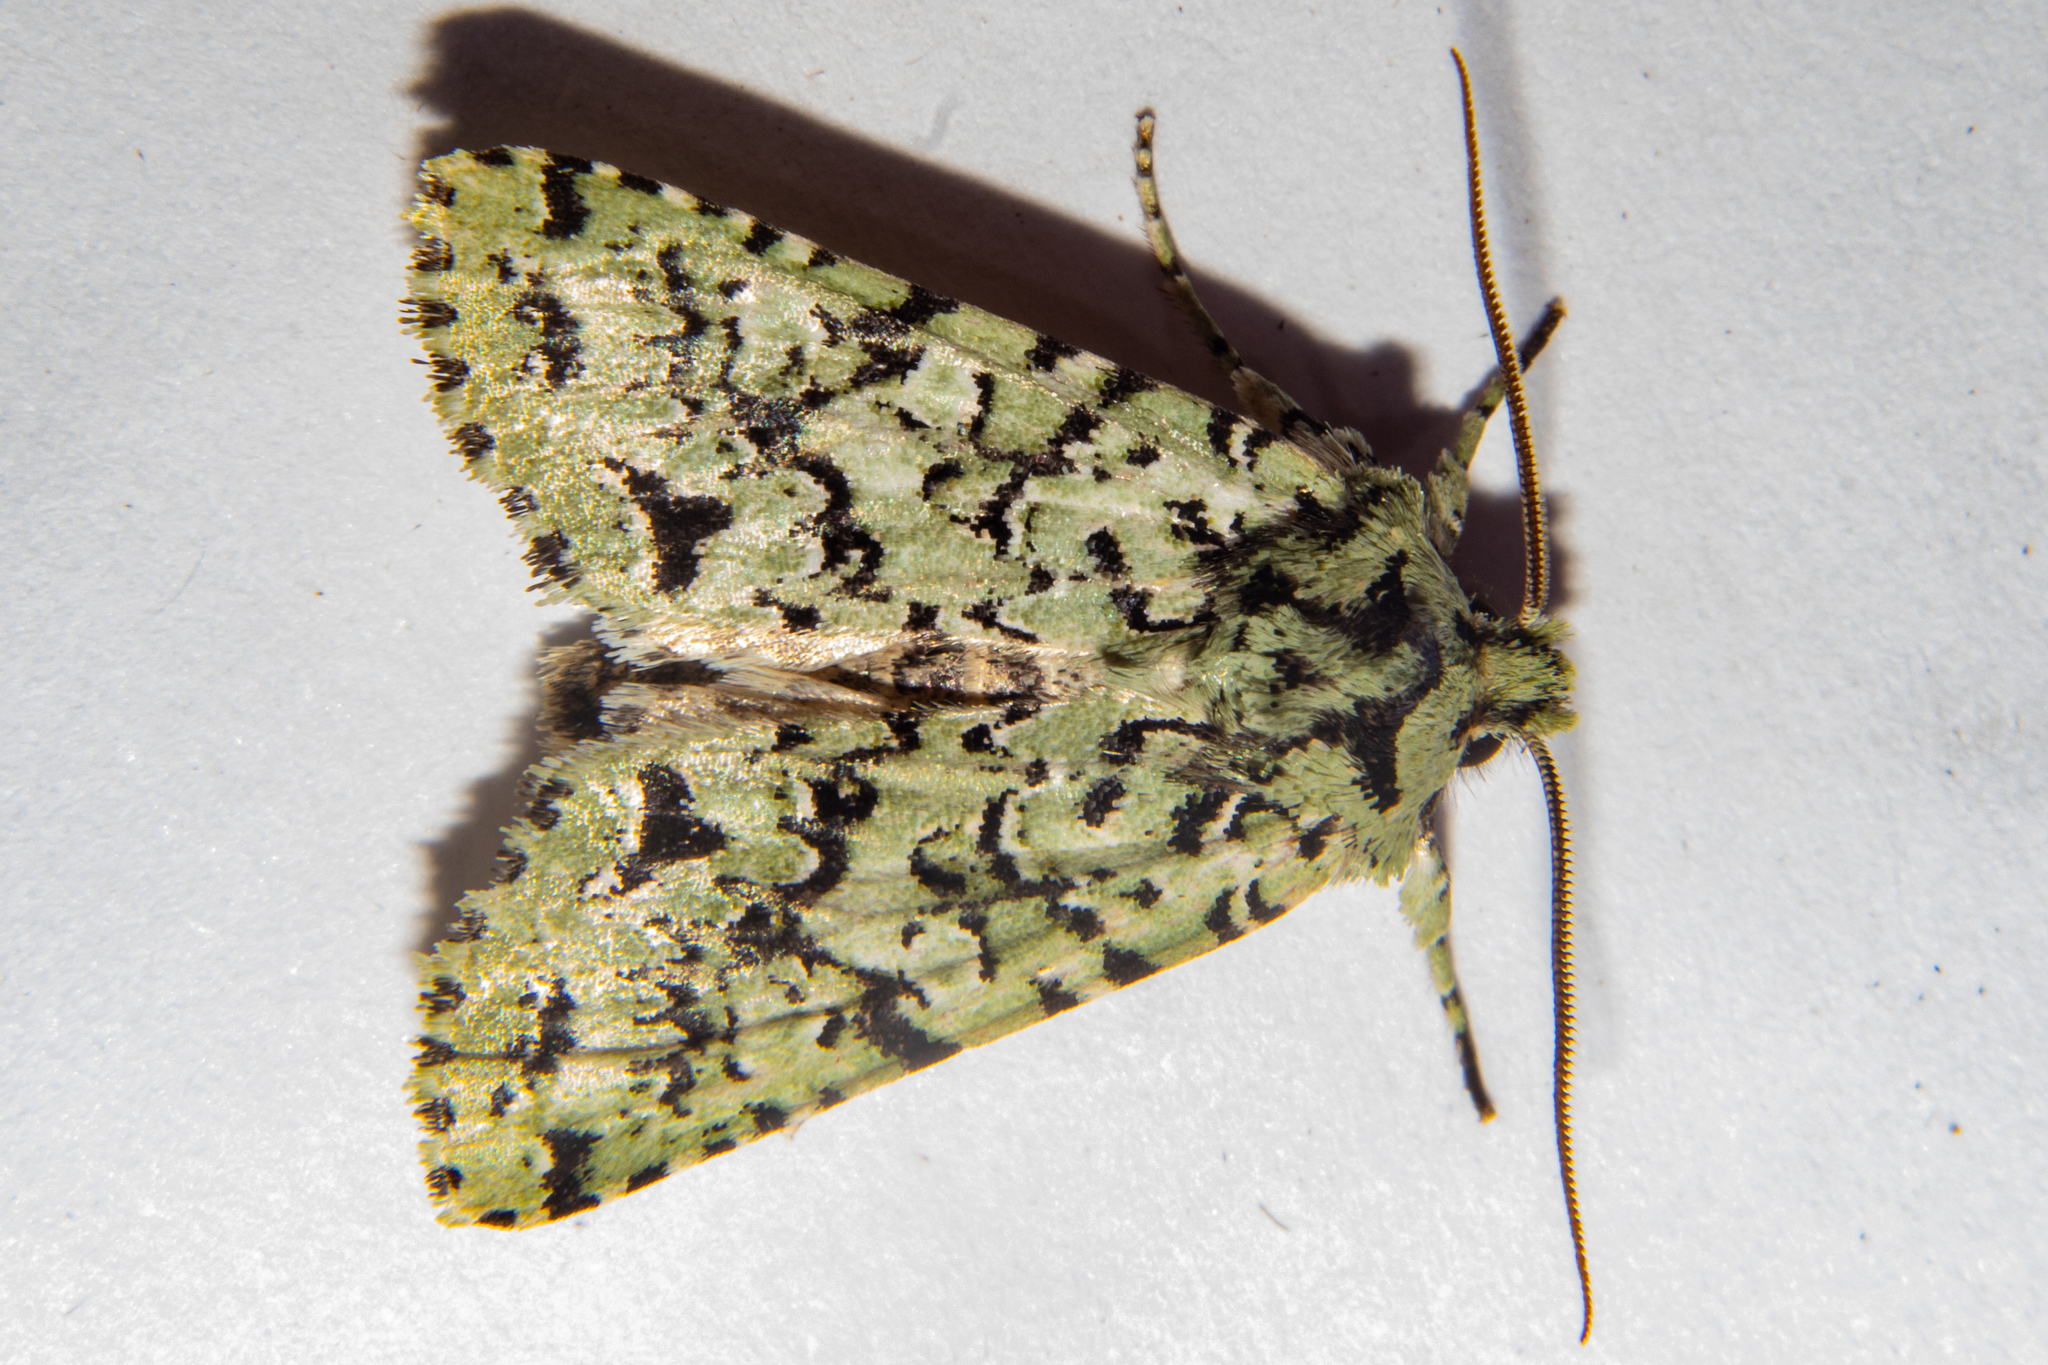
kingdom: Animalia
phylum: Arthropoda
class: Insecta
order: Lepidoptera
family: Noctuidae
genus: Meterana
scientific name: Meterana
